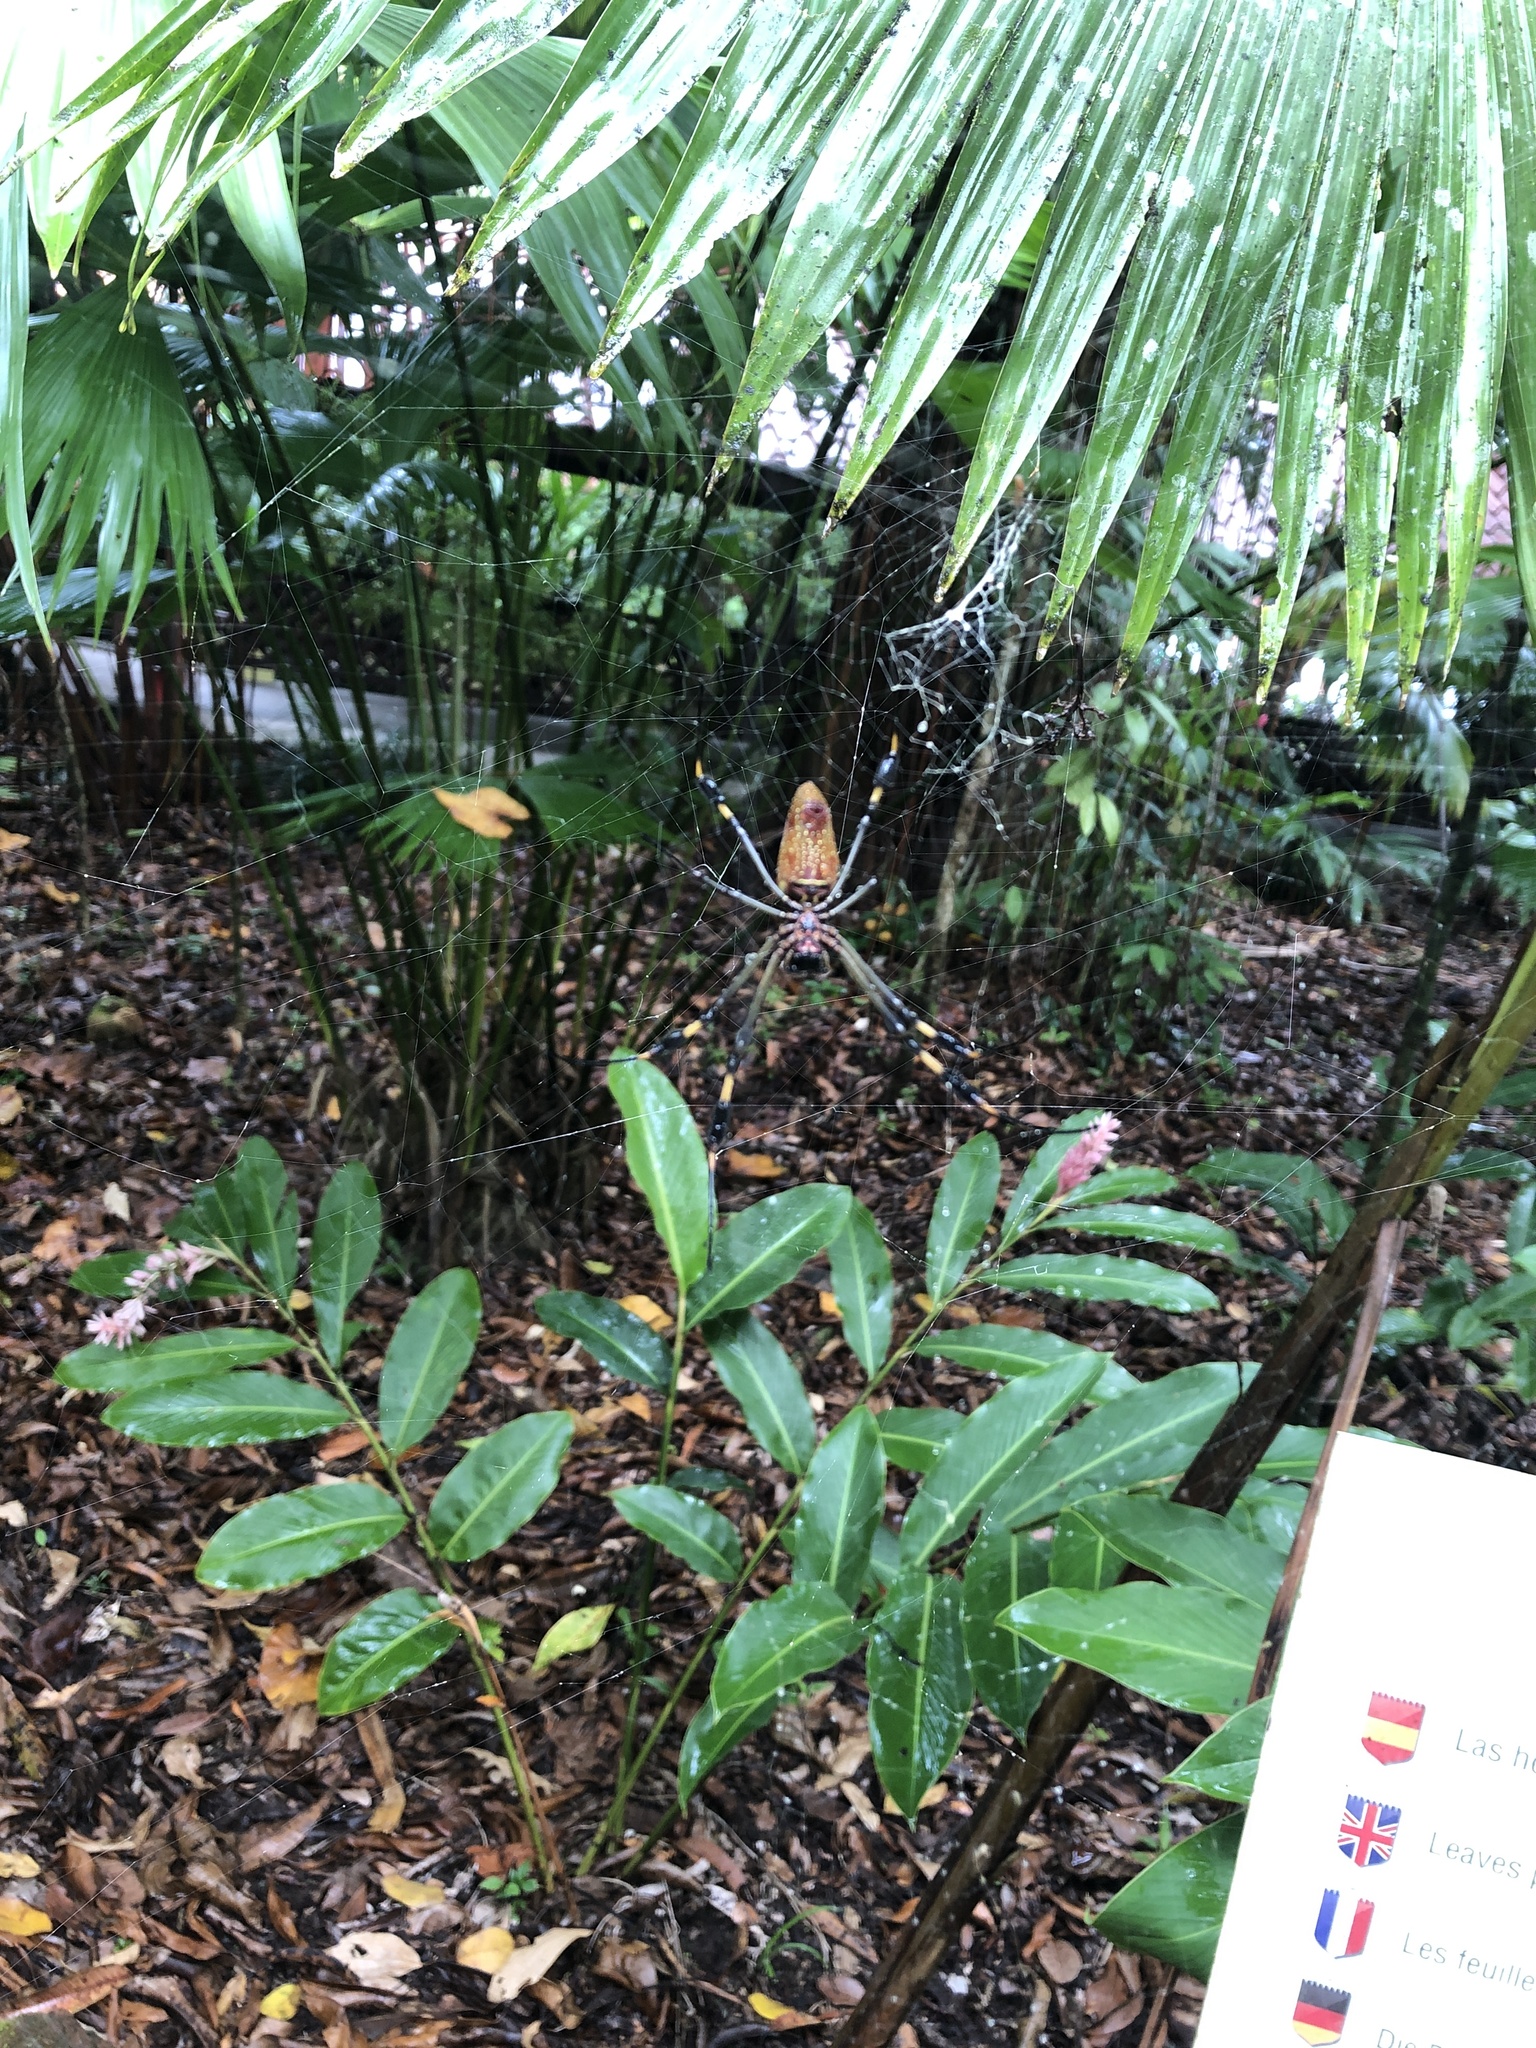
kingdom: Animalia
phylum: Arthropoda
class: Arachnida
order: Araneae
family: Araneidae
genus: Trichonephila
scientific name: Trichonephila clavipes
